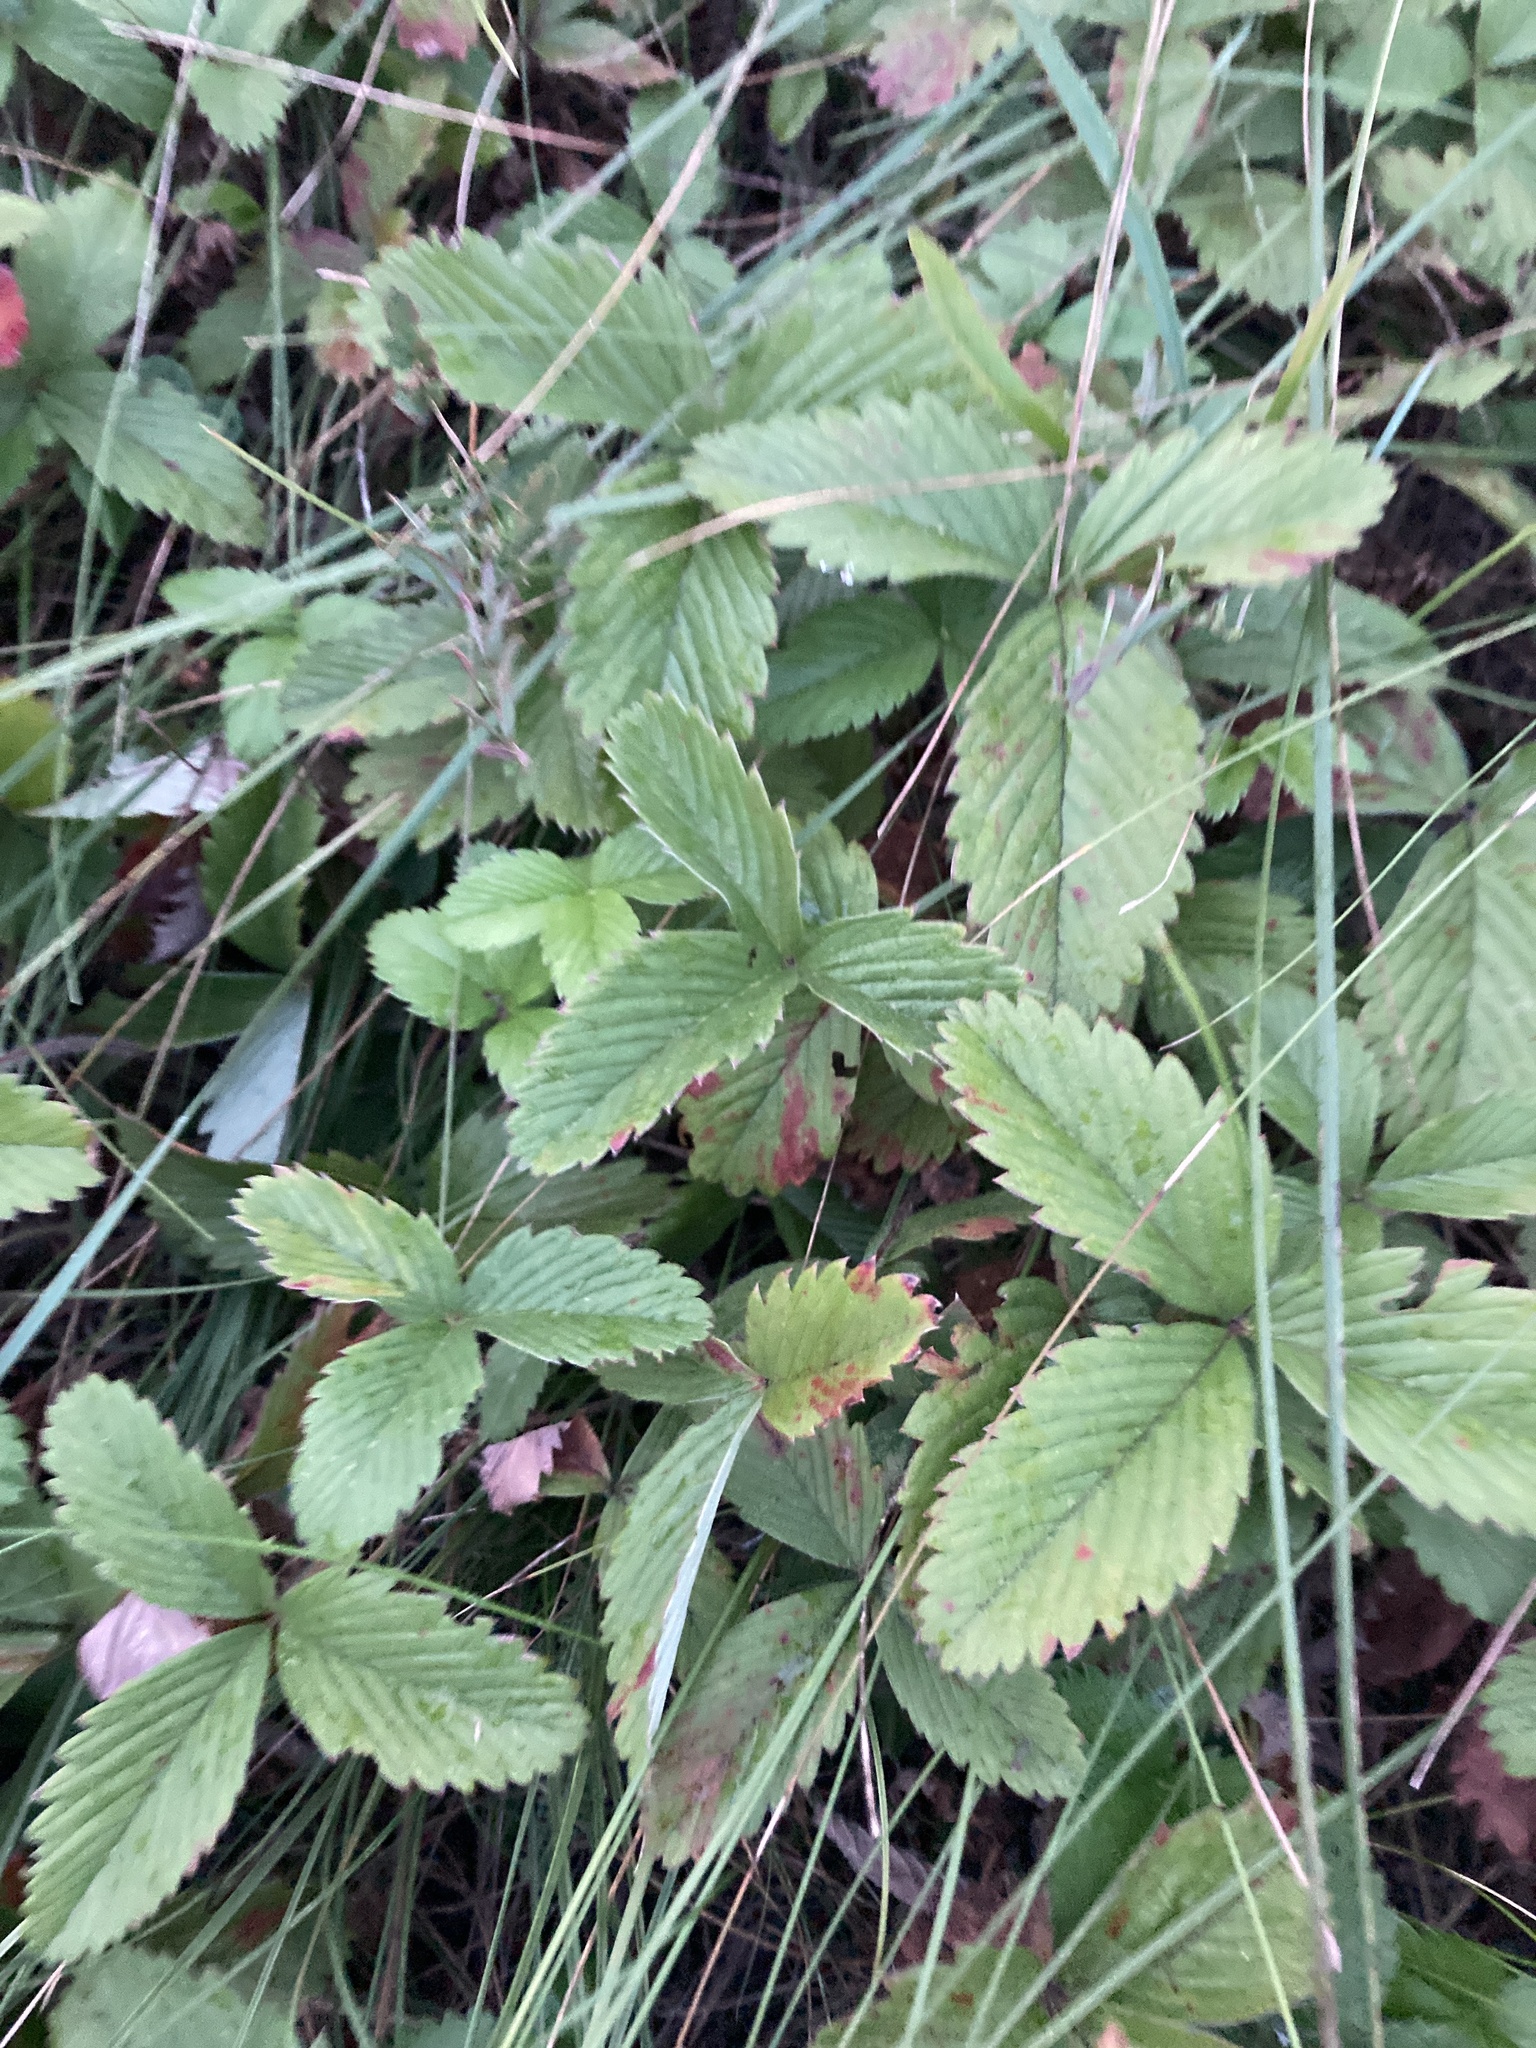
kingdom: Plantae
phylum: Tracheophyta
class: Magnoliopsida
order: Rosales
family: Rosaceae
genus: Fragaria
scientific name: Fragaria viridis
